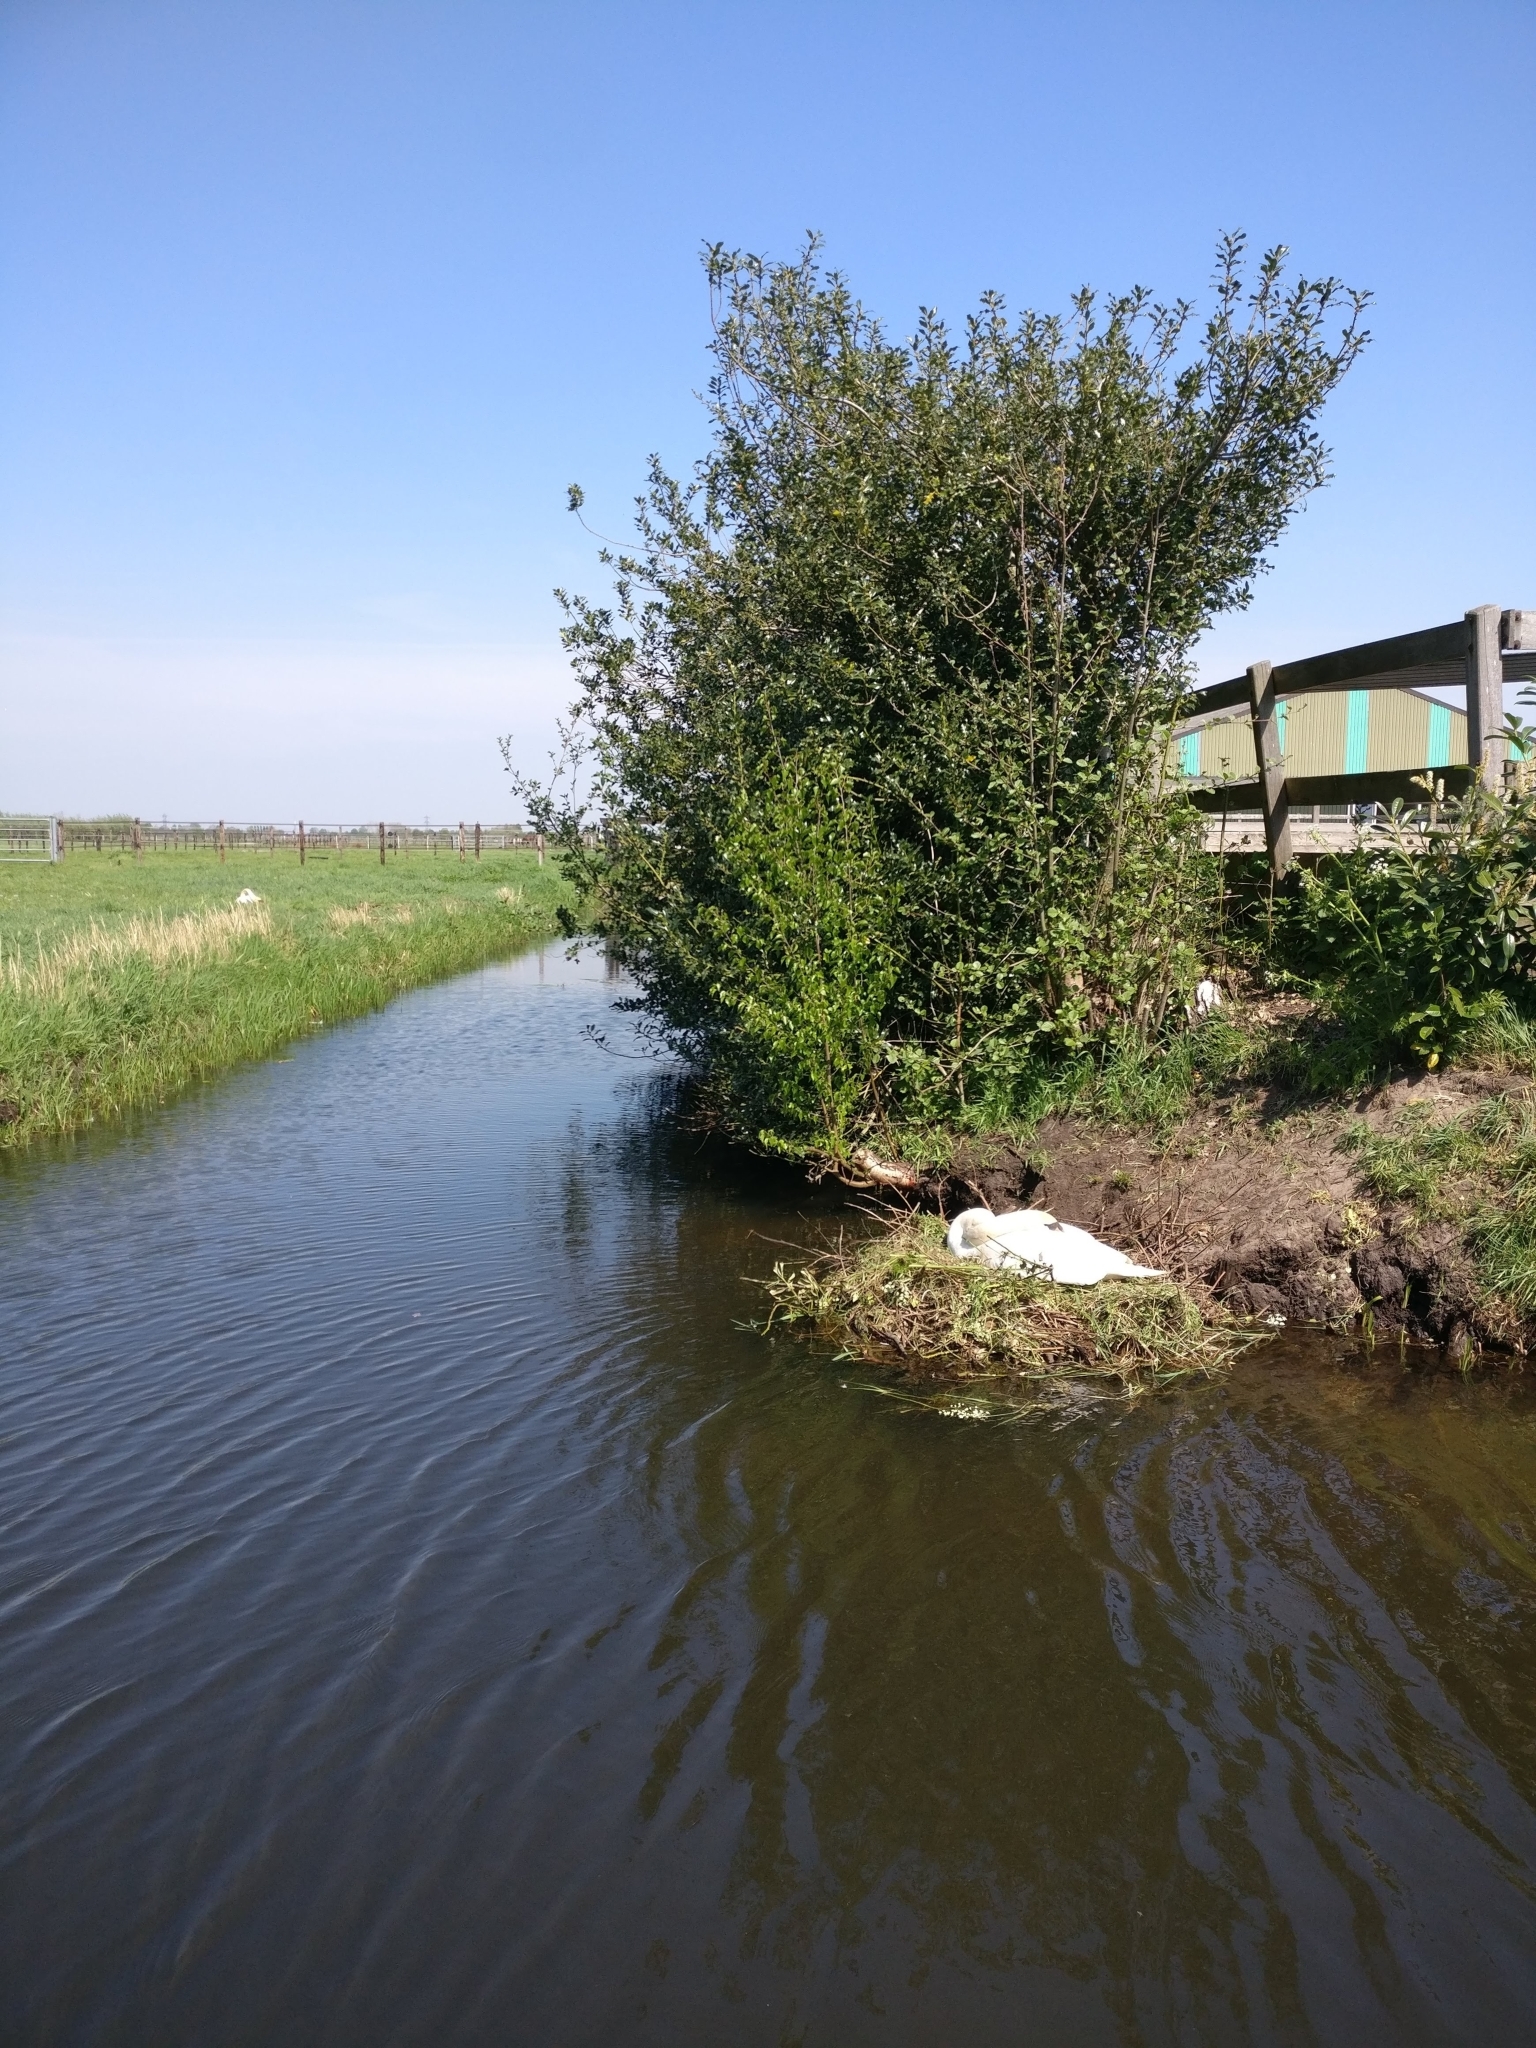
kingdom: Animalia
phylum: Chordata
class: Aves
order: Anseriformes
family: Anatidae
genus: Cygnus
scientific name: Cygnus olor
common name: Mute swan
